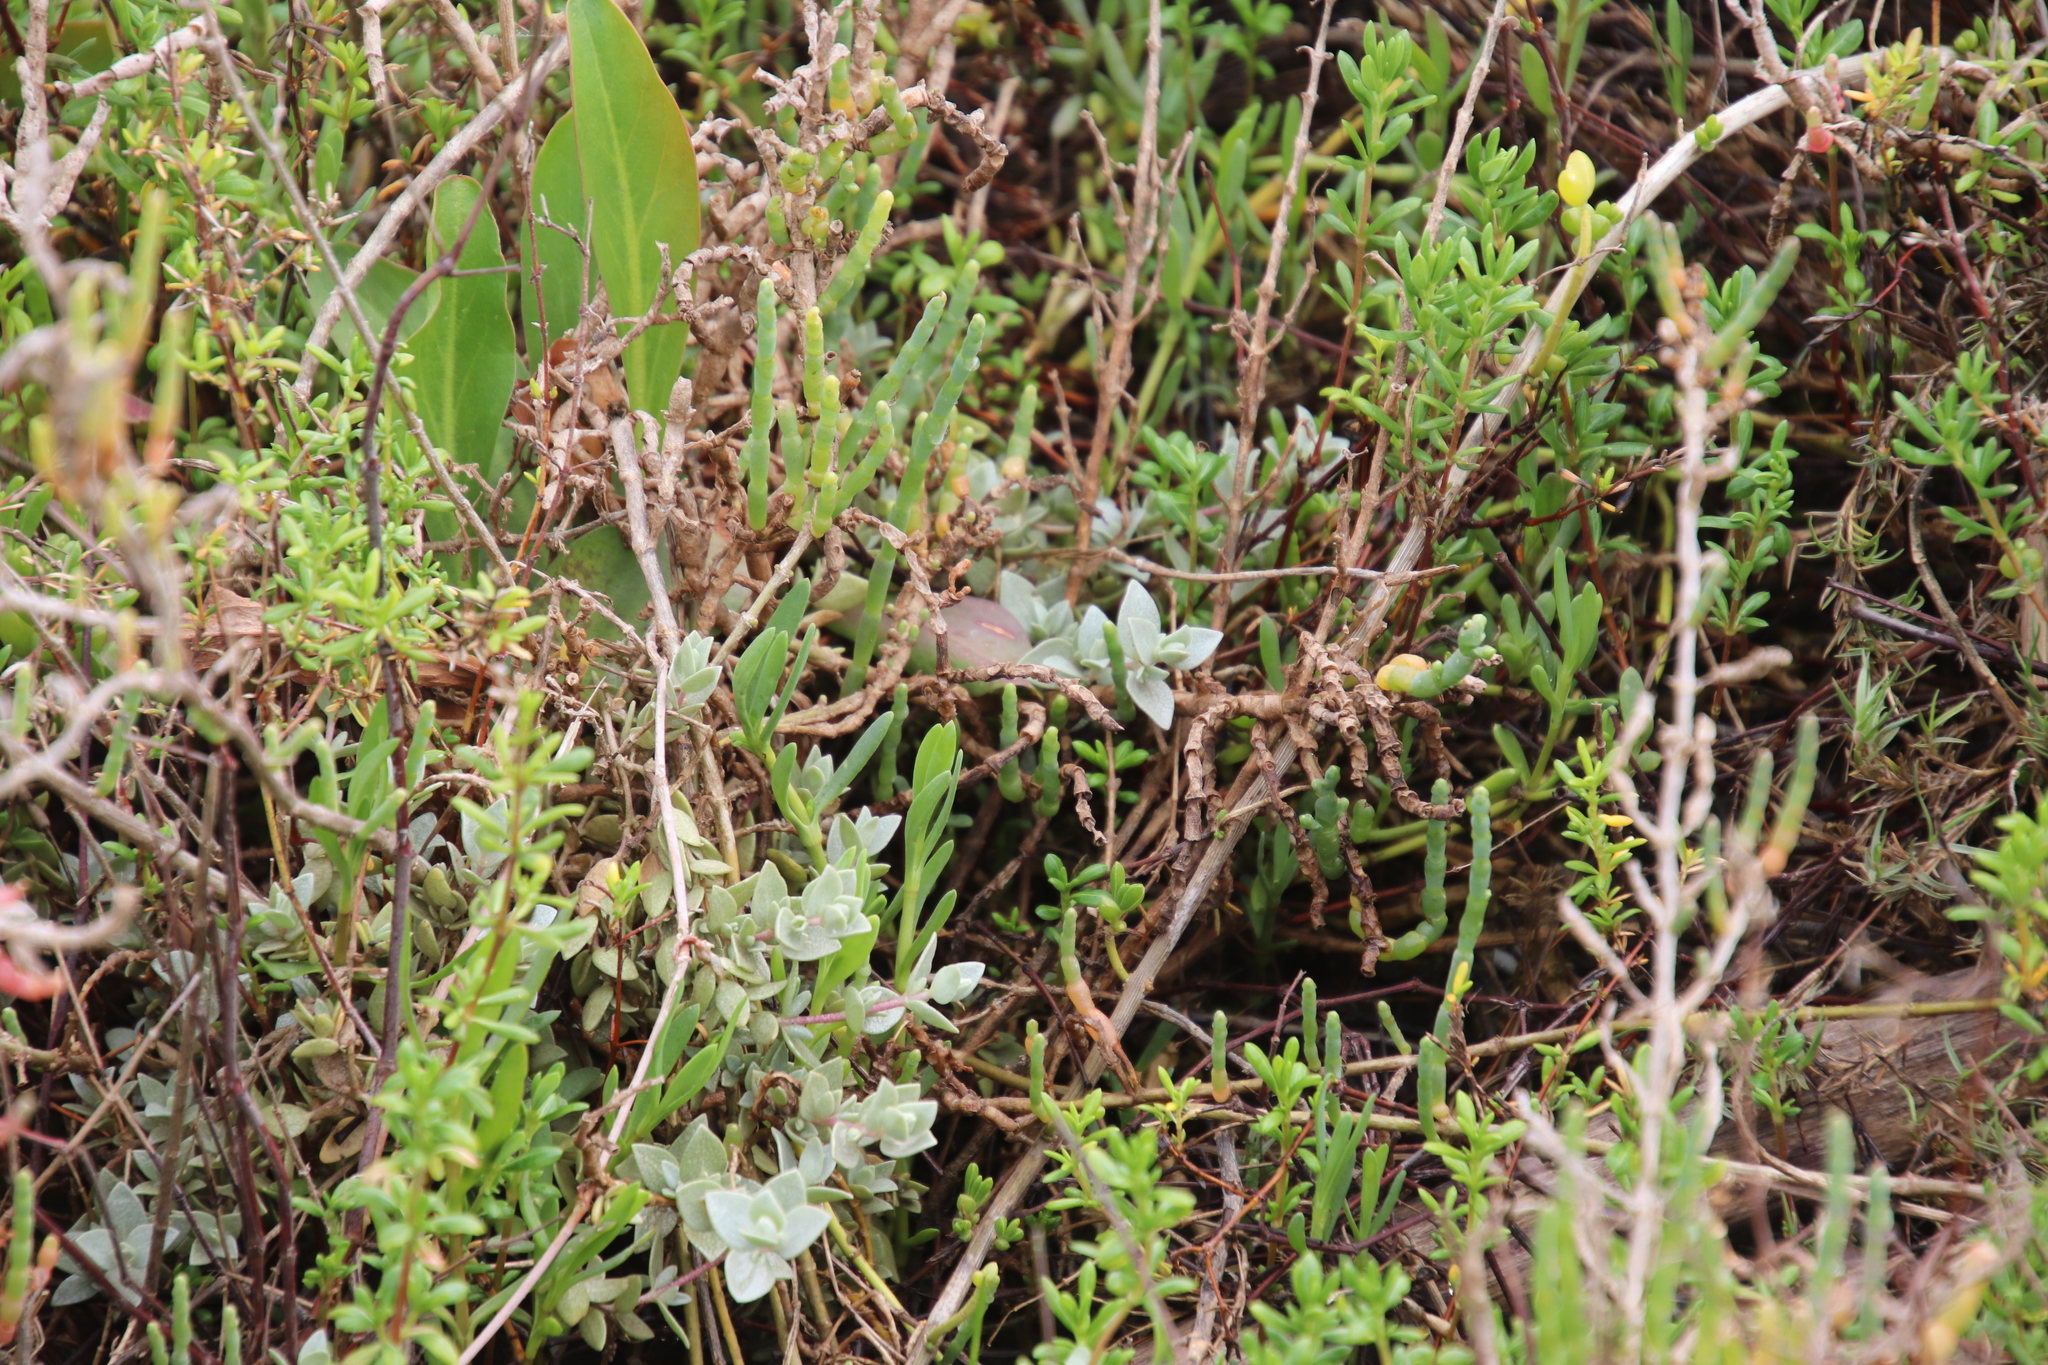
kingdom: Plantae
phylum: Tracheophyta
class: Magnoliopsida
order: Caryophyllales
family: Amaranthaceae
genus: Atriplex
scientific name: Atriplex watsonii
